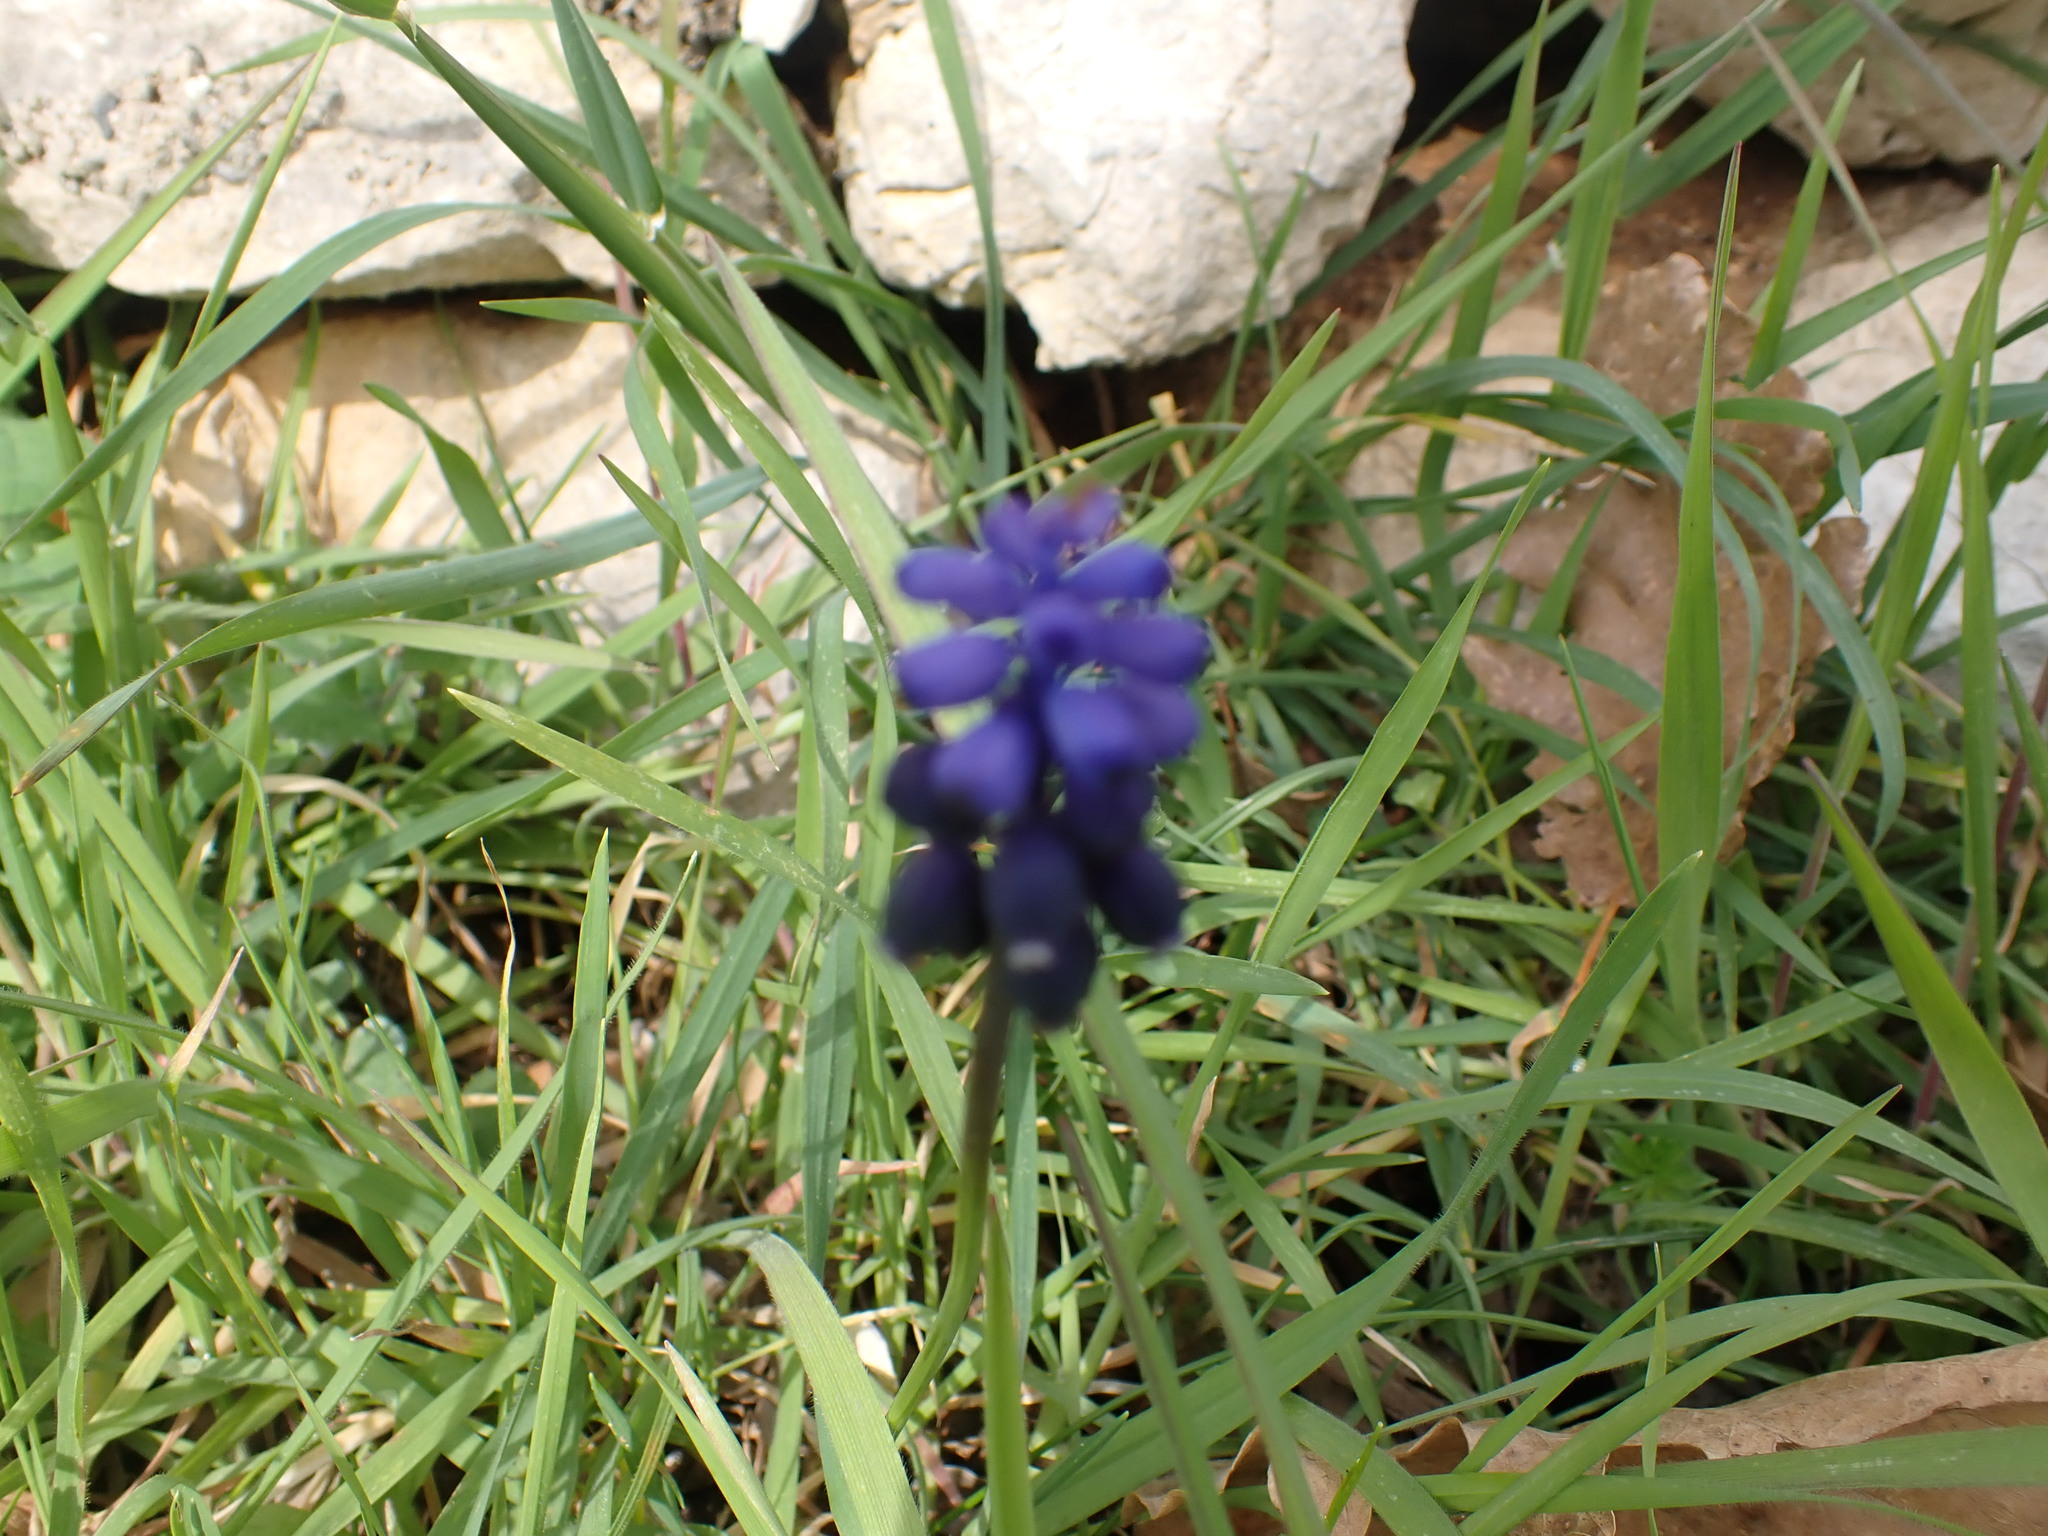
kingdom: Plantae
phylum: Tracheophyta
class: Liliopsida
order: Asparagales
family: Asparagaceae
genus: Muscari
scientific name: Muscari neglectum
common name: Grape-hyacinth
